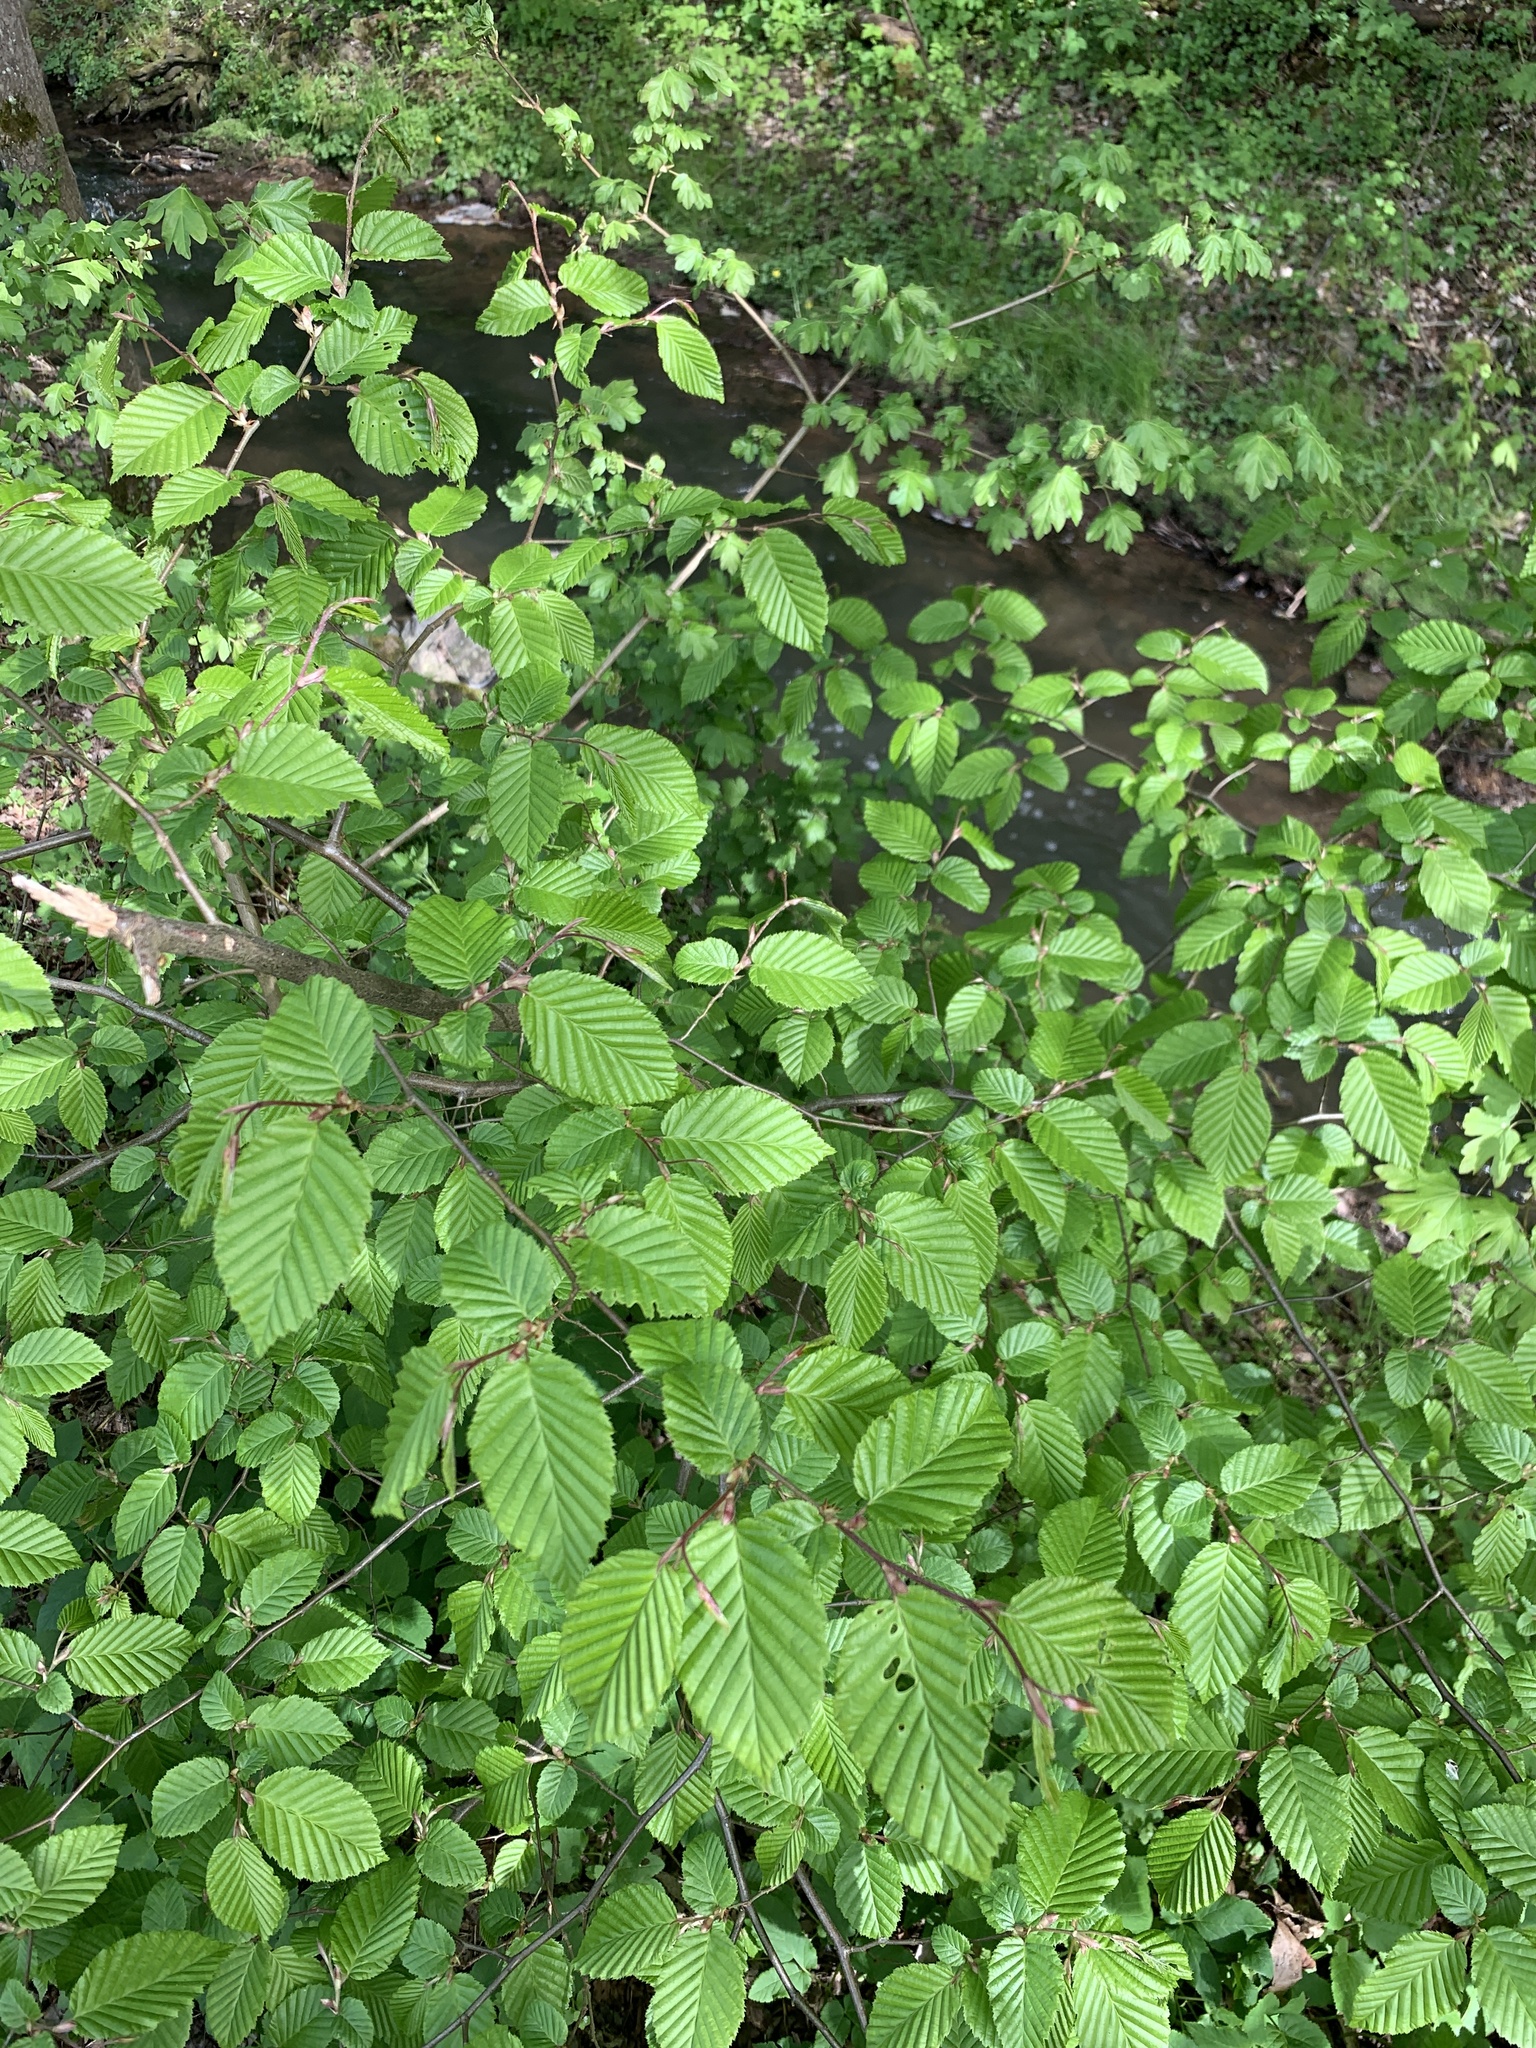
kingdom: Plantae
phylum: Tracheophyta
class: Magnoliopsida
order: Fagales
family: Betulaceae
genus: Carpinus
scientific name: Carpinus betulus
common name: Hornbeam
